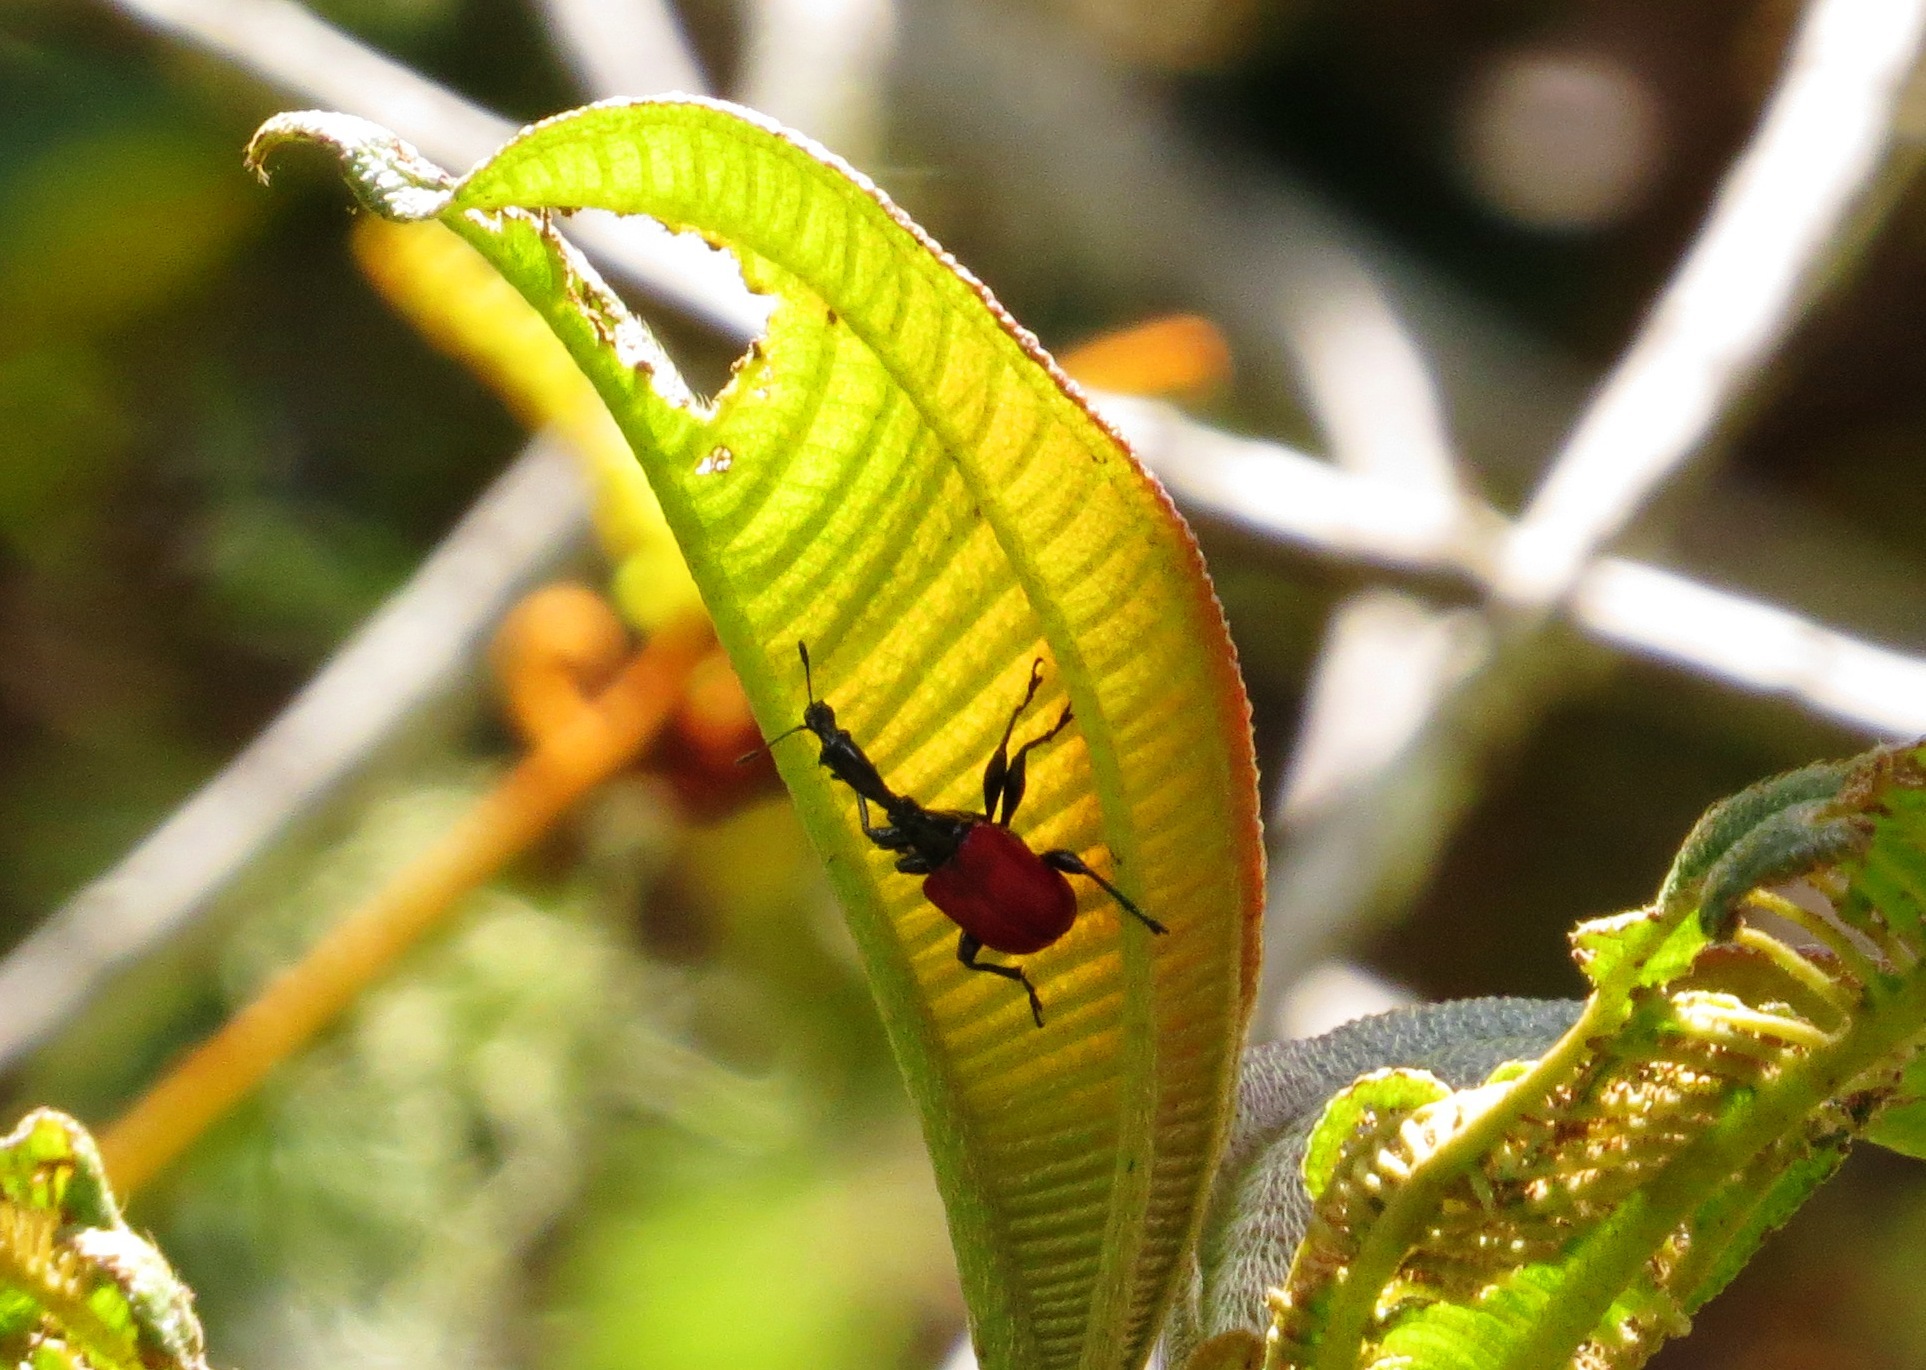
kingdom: Animalia
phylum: Arthropoda
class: Insecta
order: Coleoptera
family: Attelabidae
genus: Trachelophorus
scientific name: Trachelophorus giraffa
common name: Giraffe weevil
